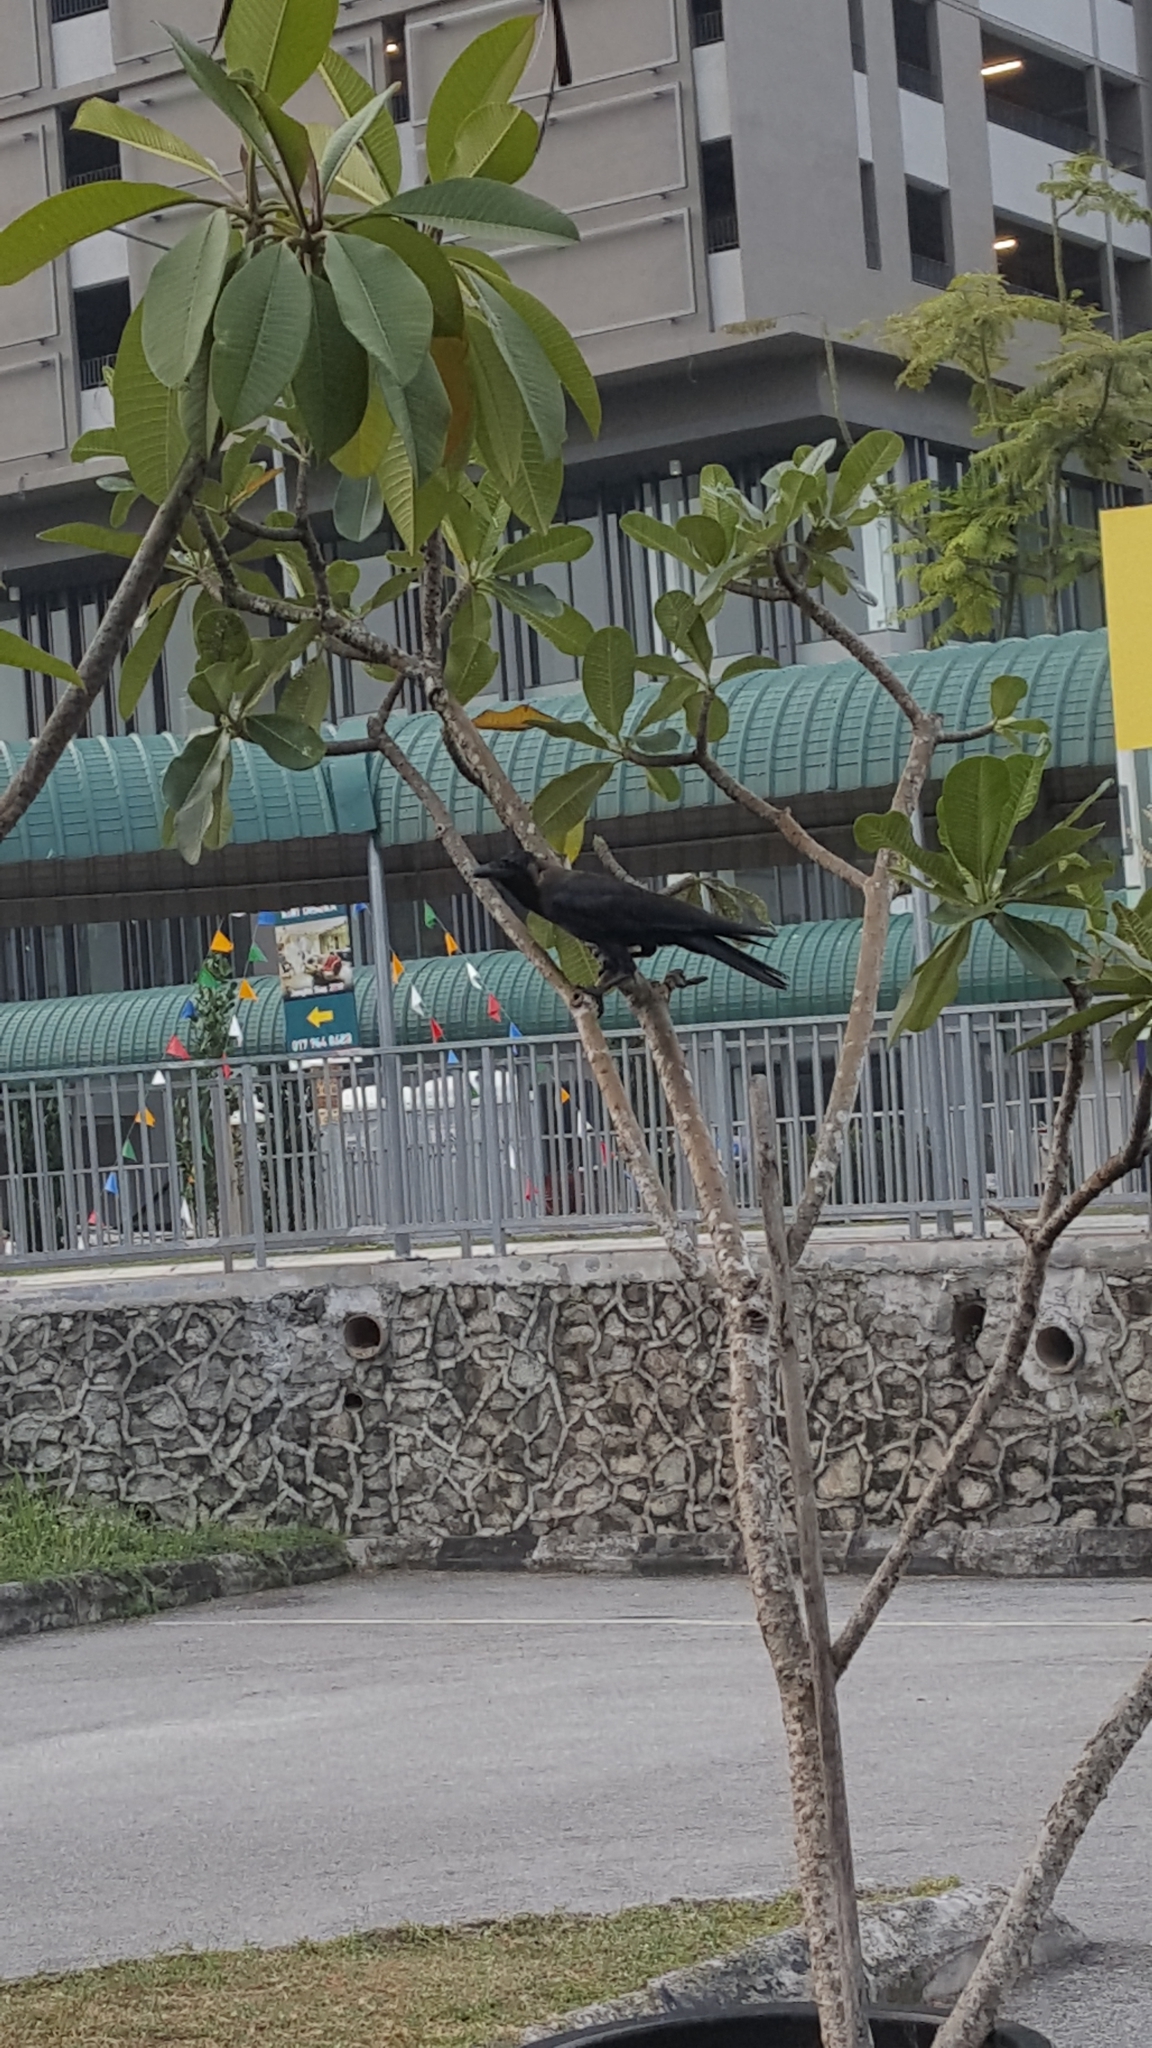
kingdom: Animalia
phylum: Chordata
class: Aves
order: Passeriformes
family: Corvidae
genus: Corvus
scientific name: Corvus splendens
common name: House crow
